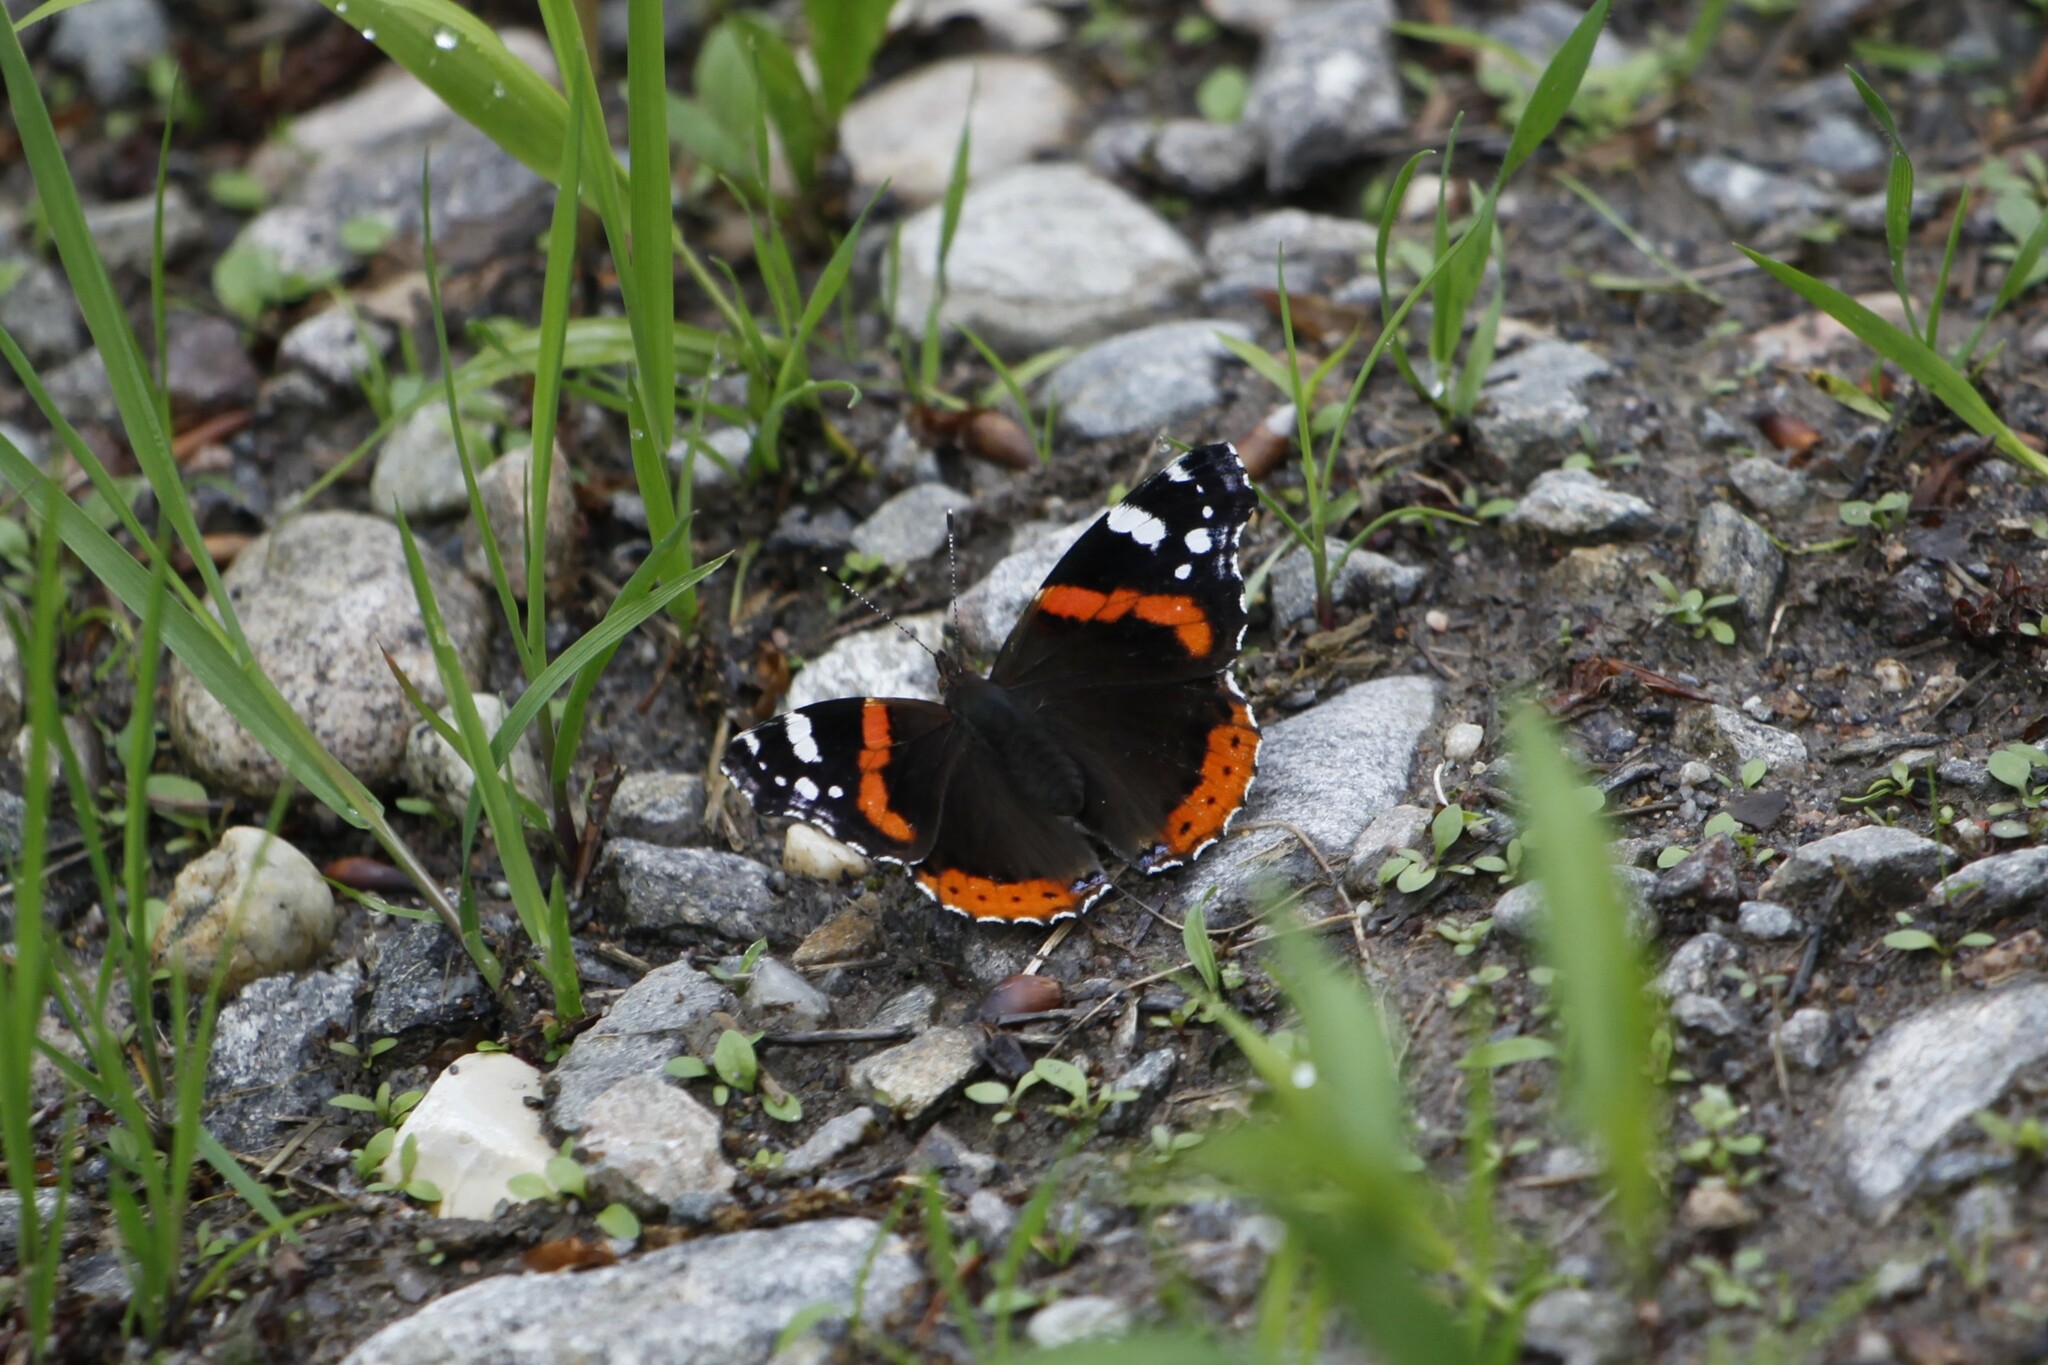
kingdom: Animalia
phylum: Arthropoda
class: Insecta
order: Lepidoptera
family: Nymphalidae
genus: Vanessa
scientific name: Vanessa atalanta
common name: Red admiral
